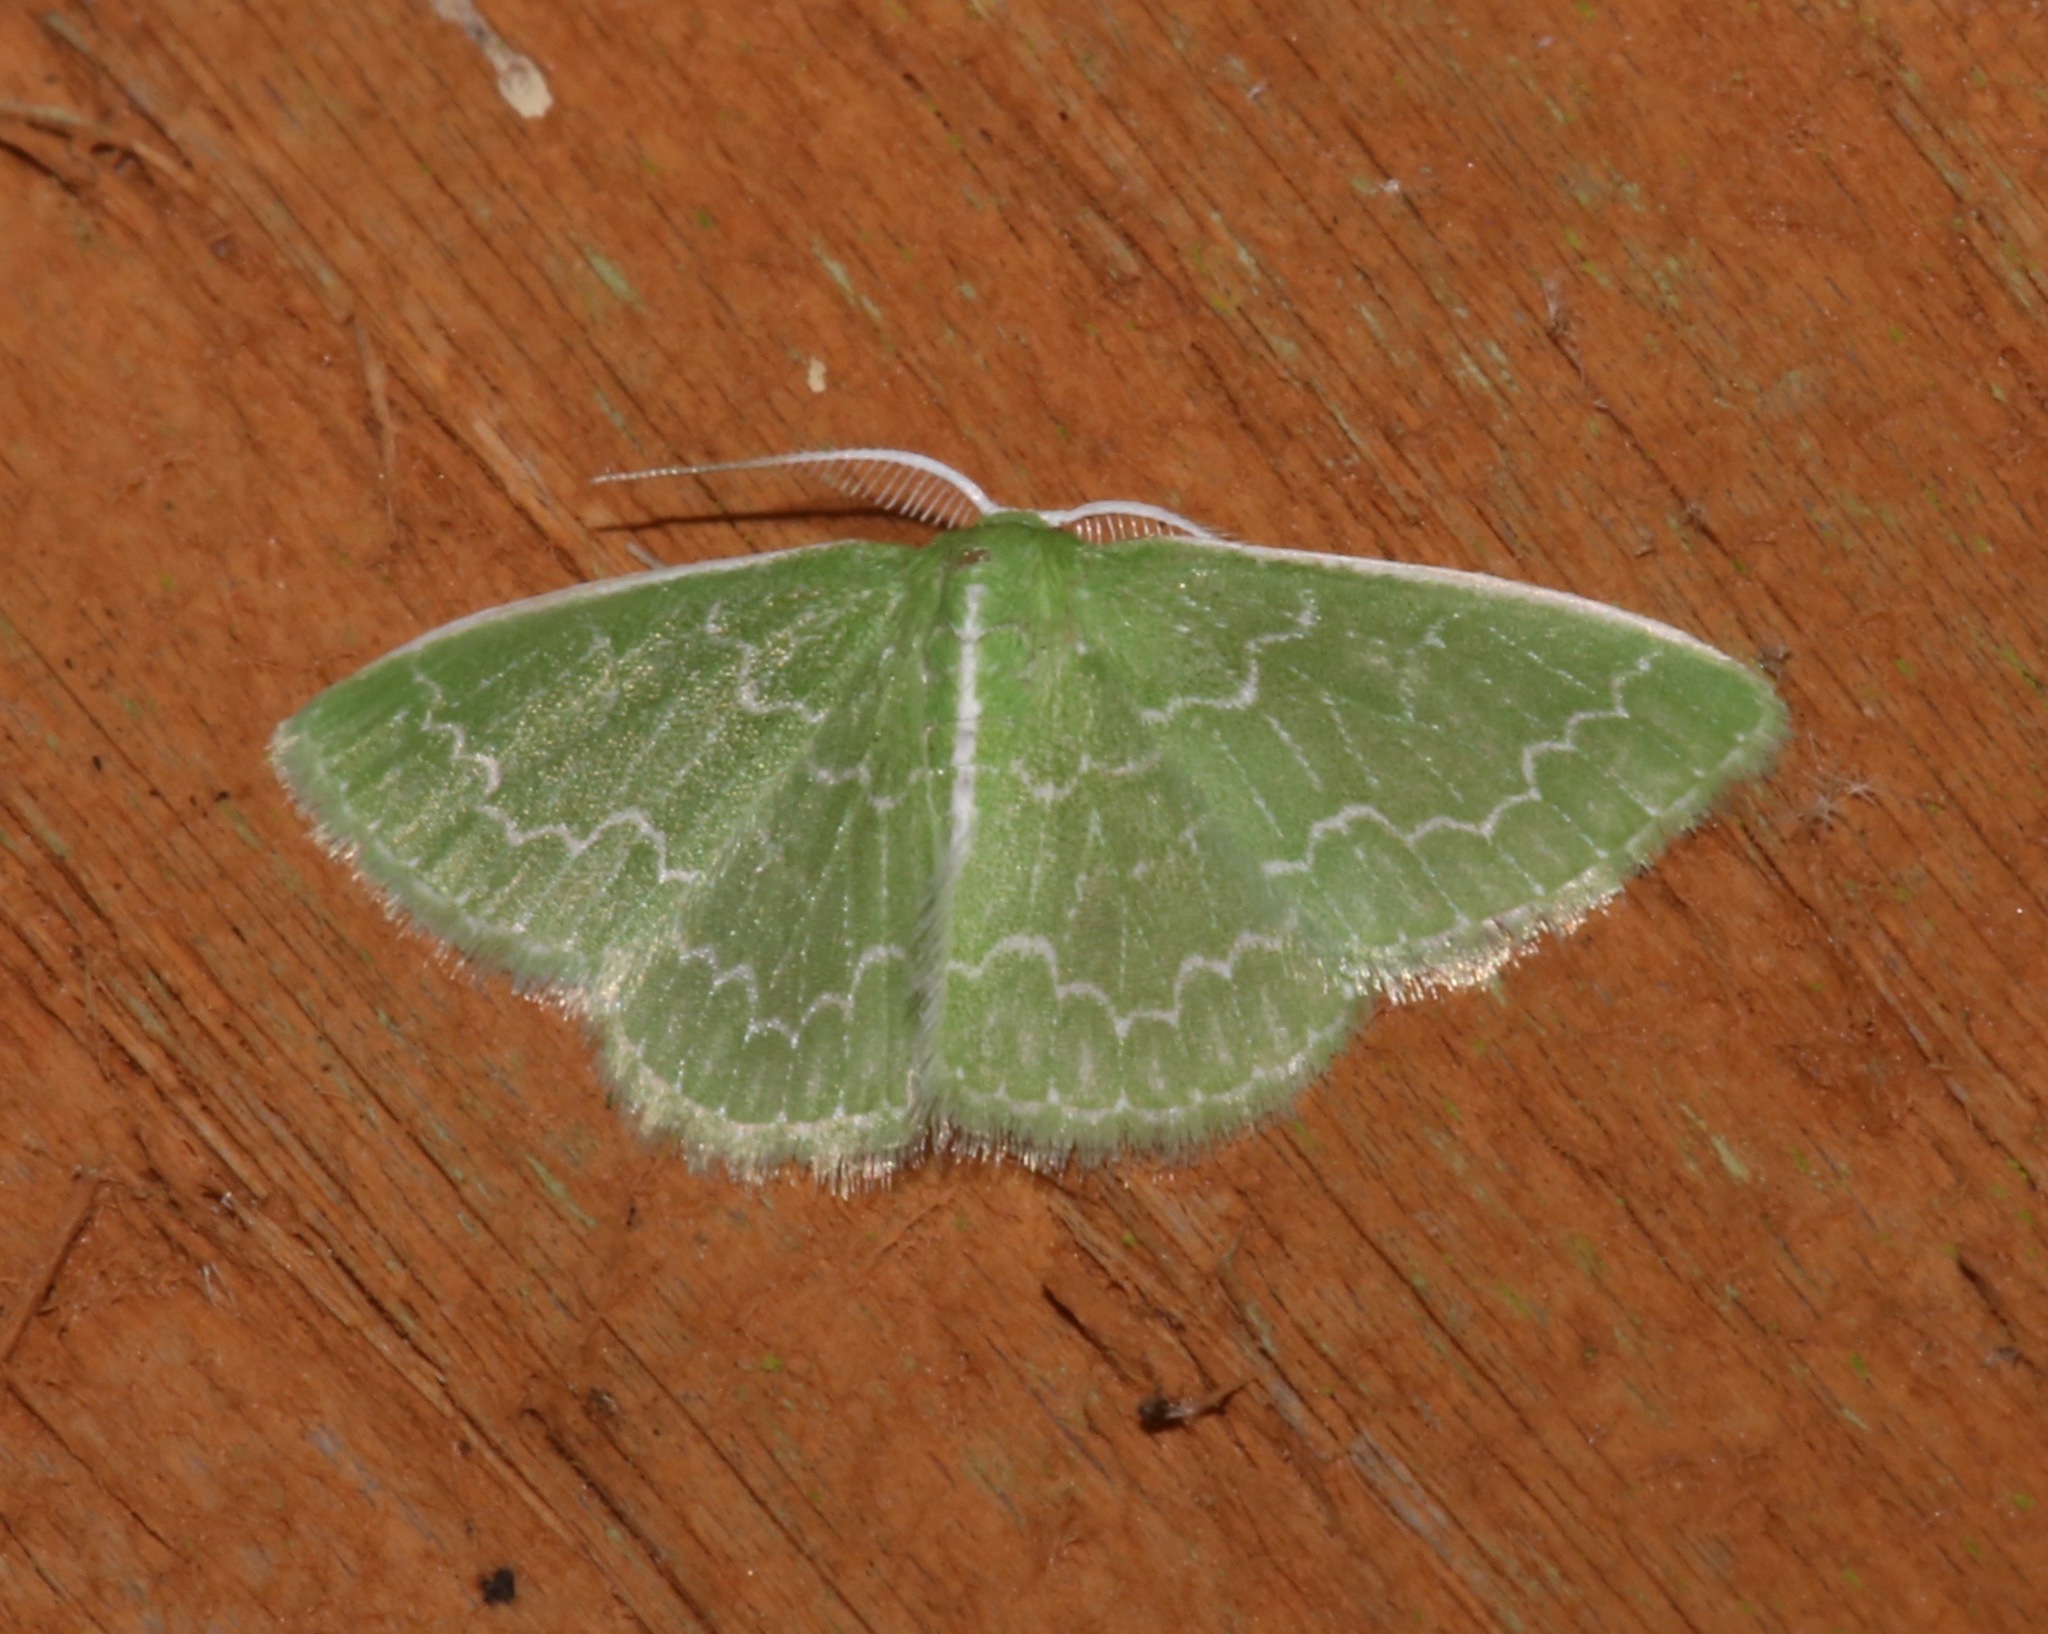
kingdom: Animalia
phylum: Arthropoda
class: Insecta
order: Lepidoptera
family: Geometridae
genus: Synchlora
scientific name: Synchlora frondaria
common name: Southern emerald
